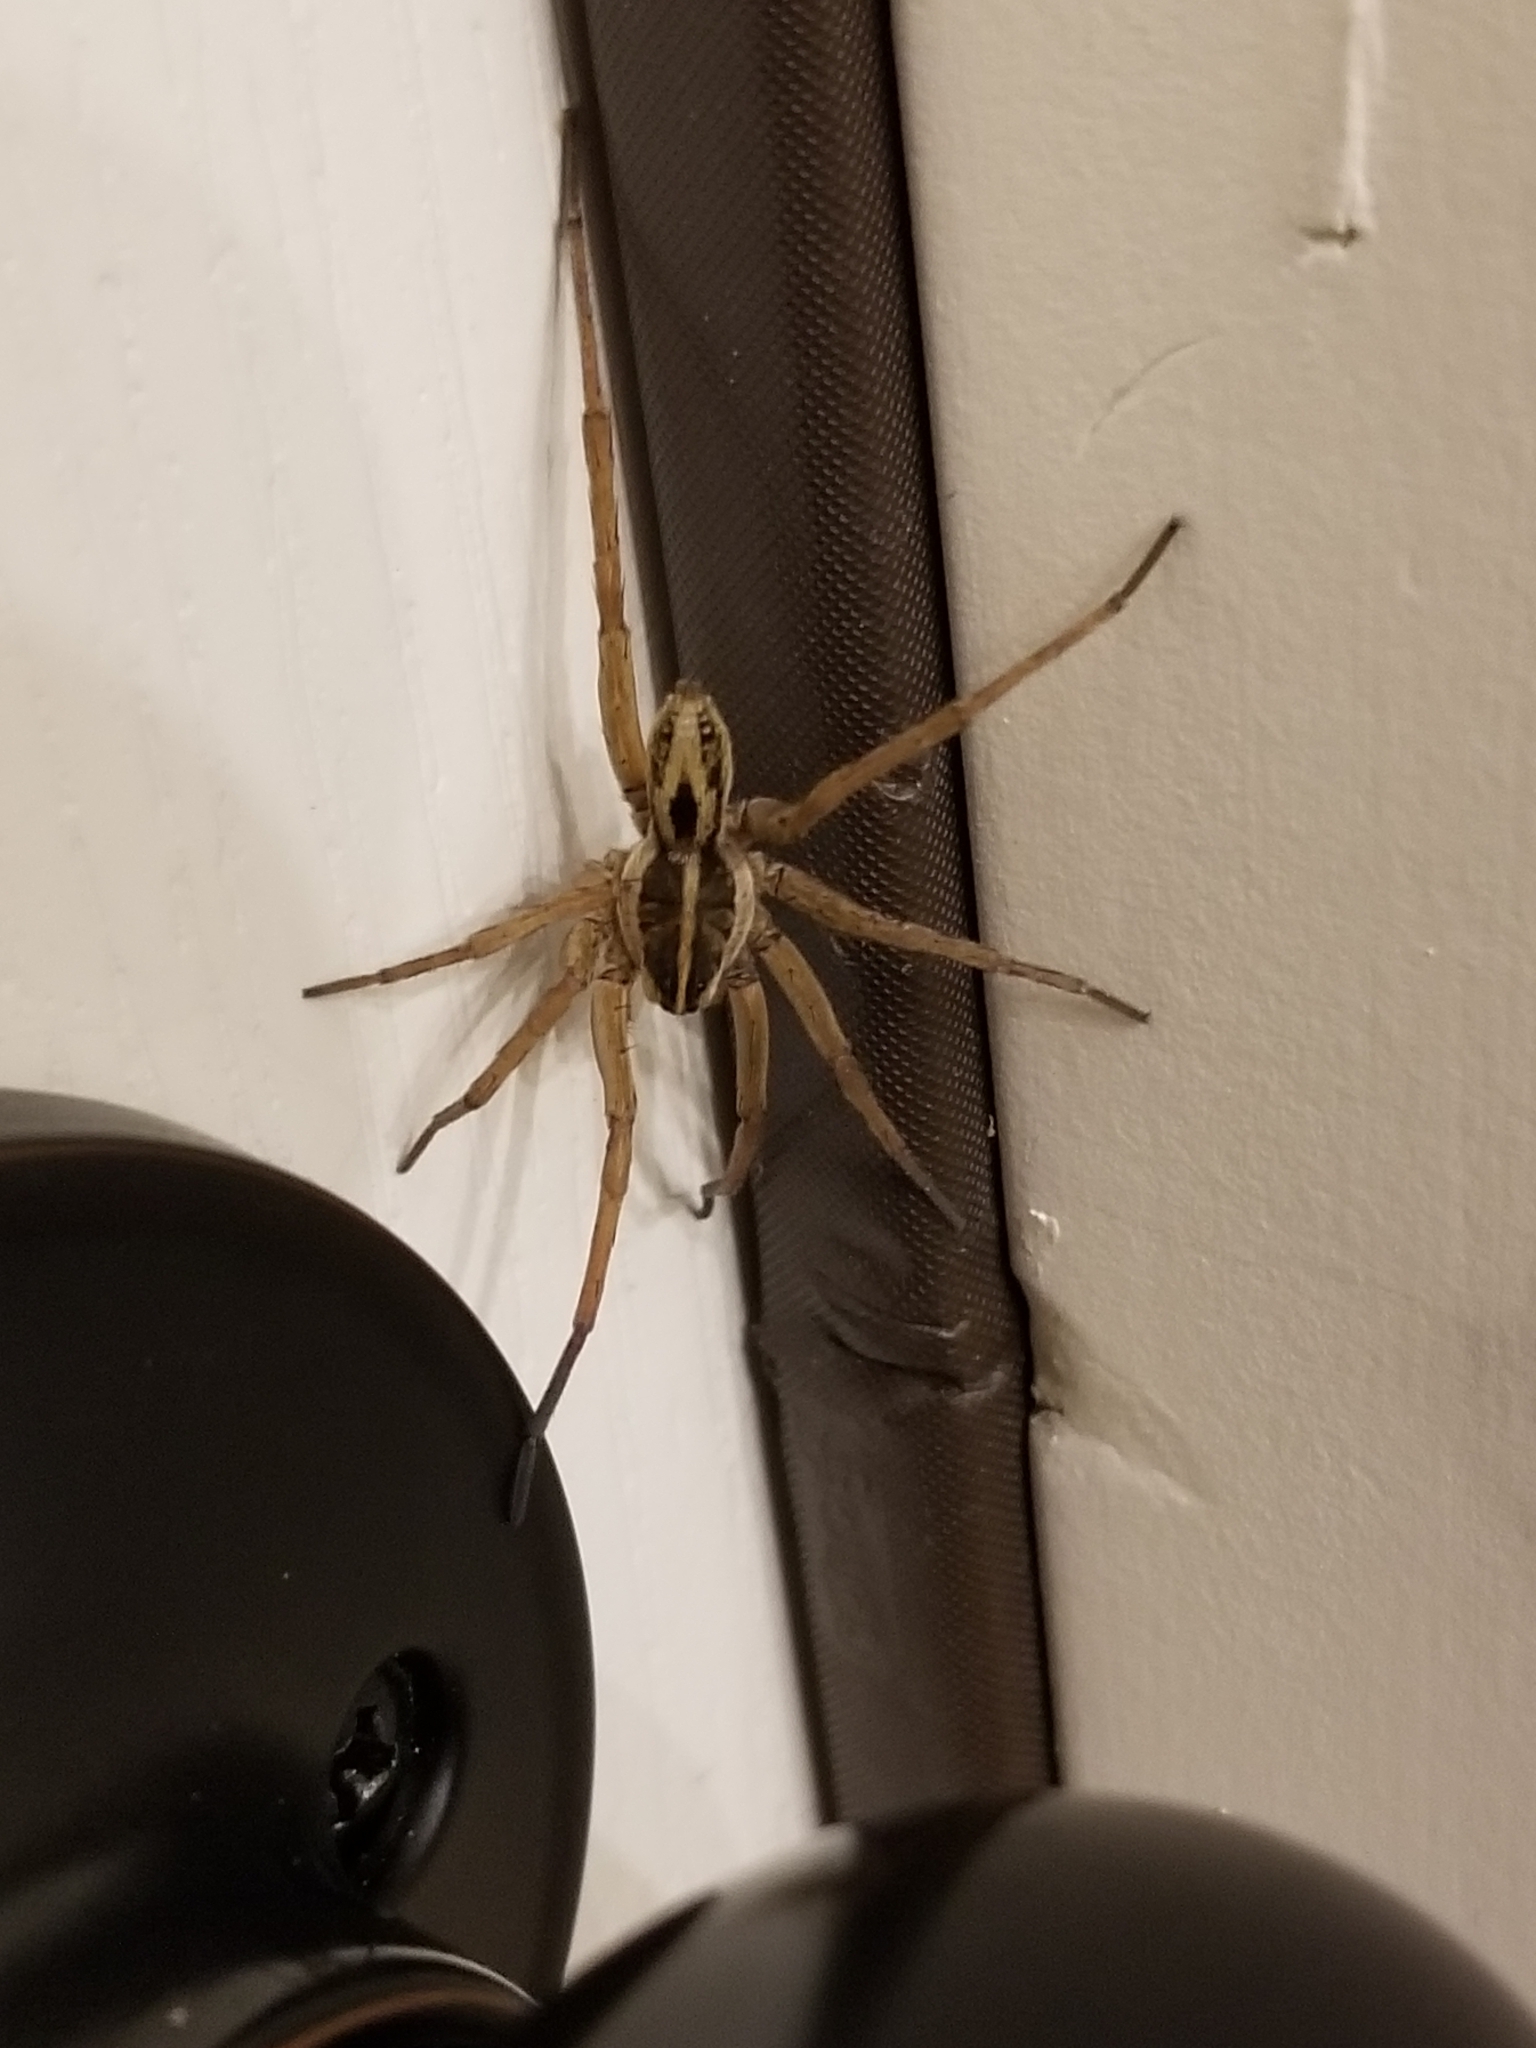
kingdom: Animalia
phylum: Arthropoda
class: Arachnida
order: Araneae
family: Lycosidae
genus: Tigrosa
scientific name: Tigrosa annexa
